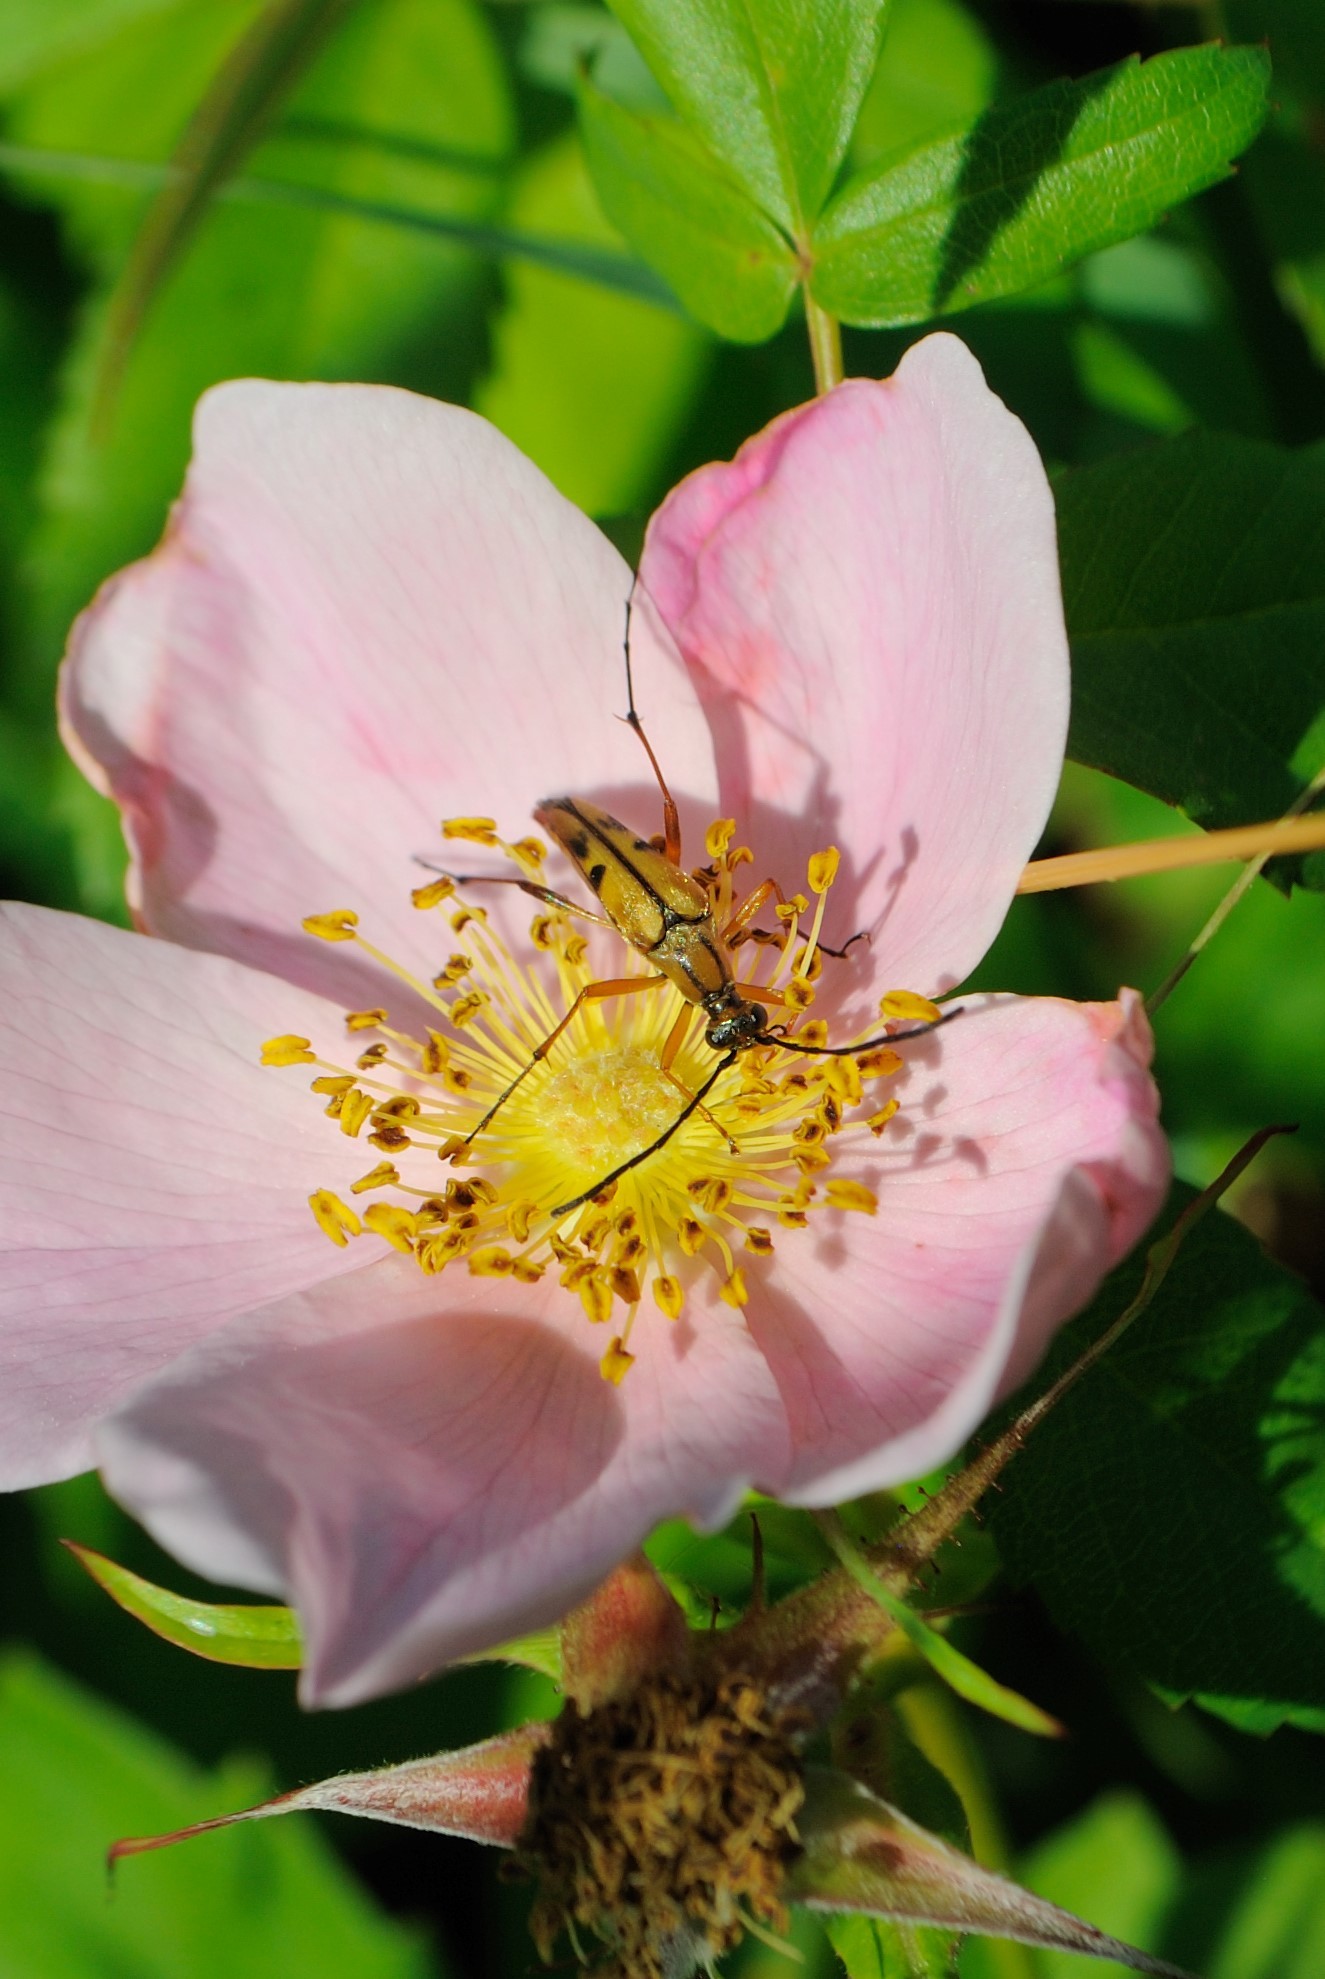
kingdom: Animalia
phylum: Arthropoda
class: Insecta
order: Coleoptera
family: Cerambycidae
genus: Strangalia
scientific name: Strangalia famelica
